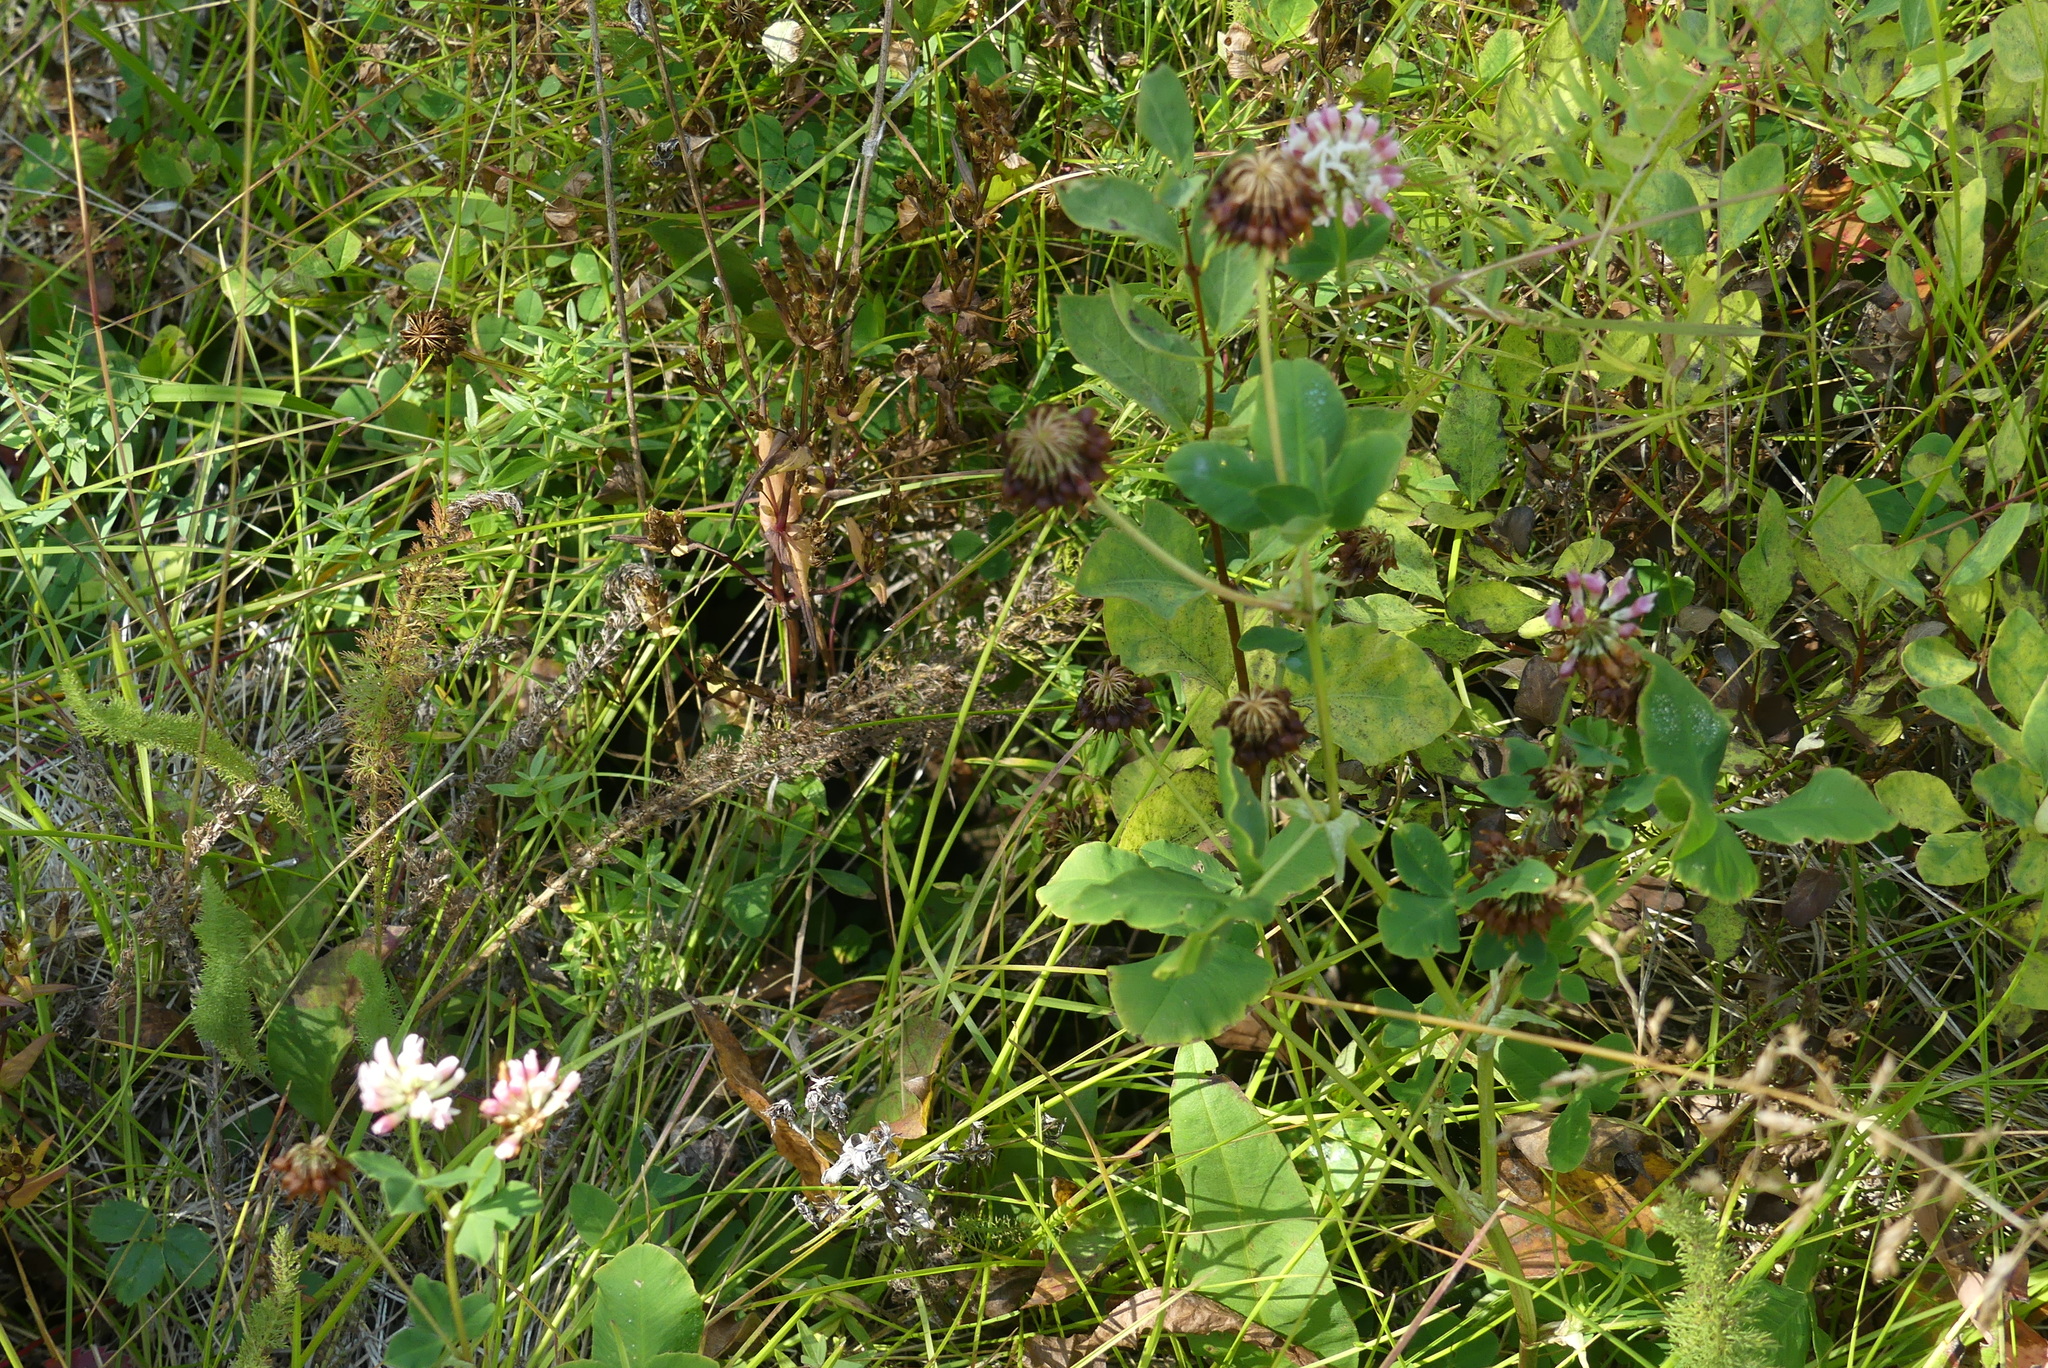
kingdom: Plantae
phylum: Tracheophyta
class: Magnoliopsida
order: Fabales
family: Fabaceae
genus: Trifolium
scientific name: Trifolium hybridum
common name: Alsike clover
